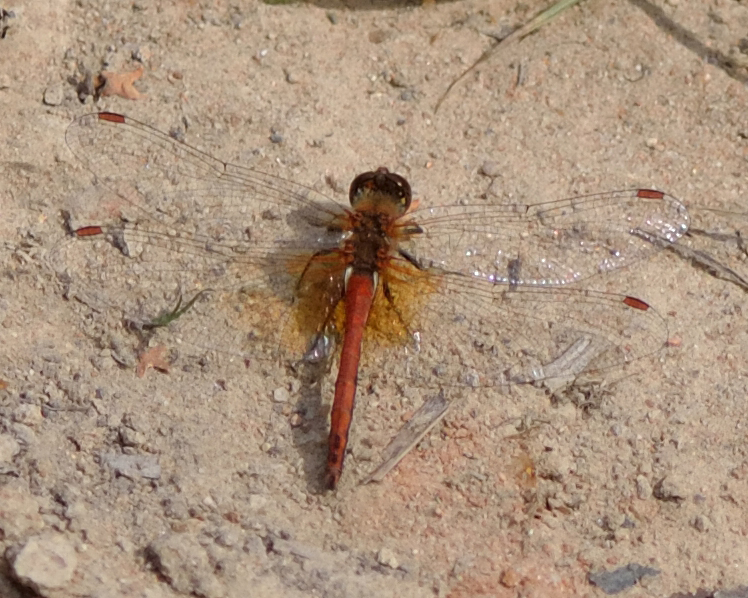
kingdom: Animalia
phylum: Arthropoda
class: Insecta
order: Odonata
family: Libellulidae
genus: Sympetrum
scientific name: Sympetrum flaveolum
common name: Yellow-winged darter
